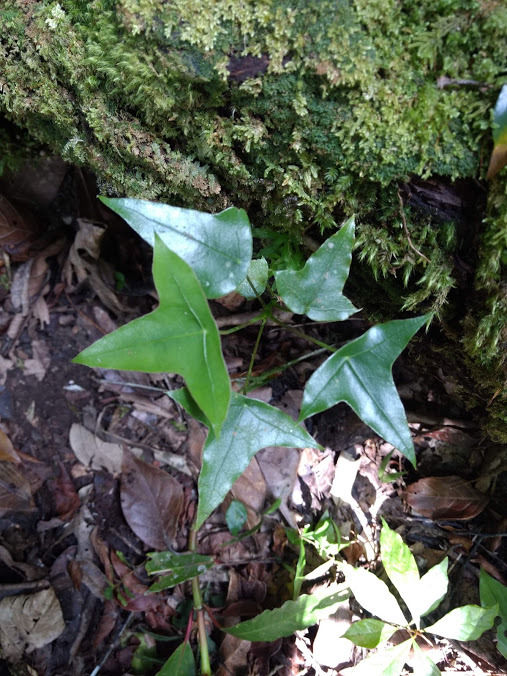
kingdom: Plantae
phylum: Tracheophyta
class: Magnoliopsida
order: Apiales
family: Araliaceae
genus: Oreopanax
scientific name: Oreopanax sanderianus
